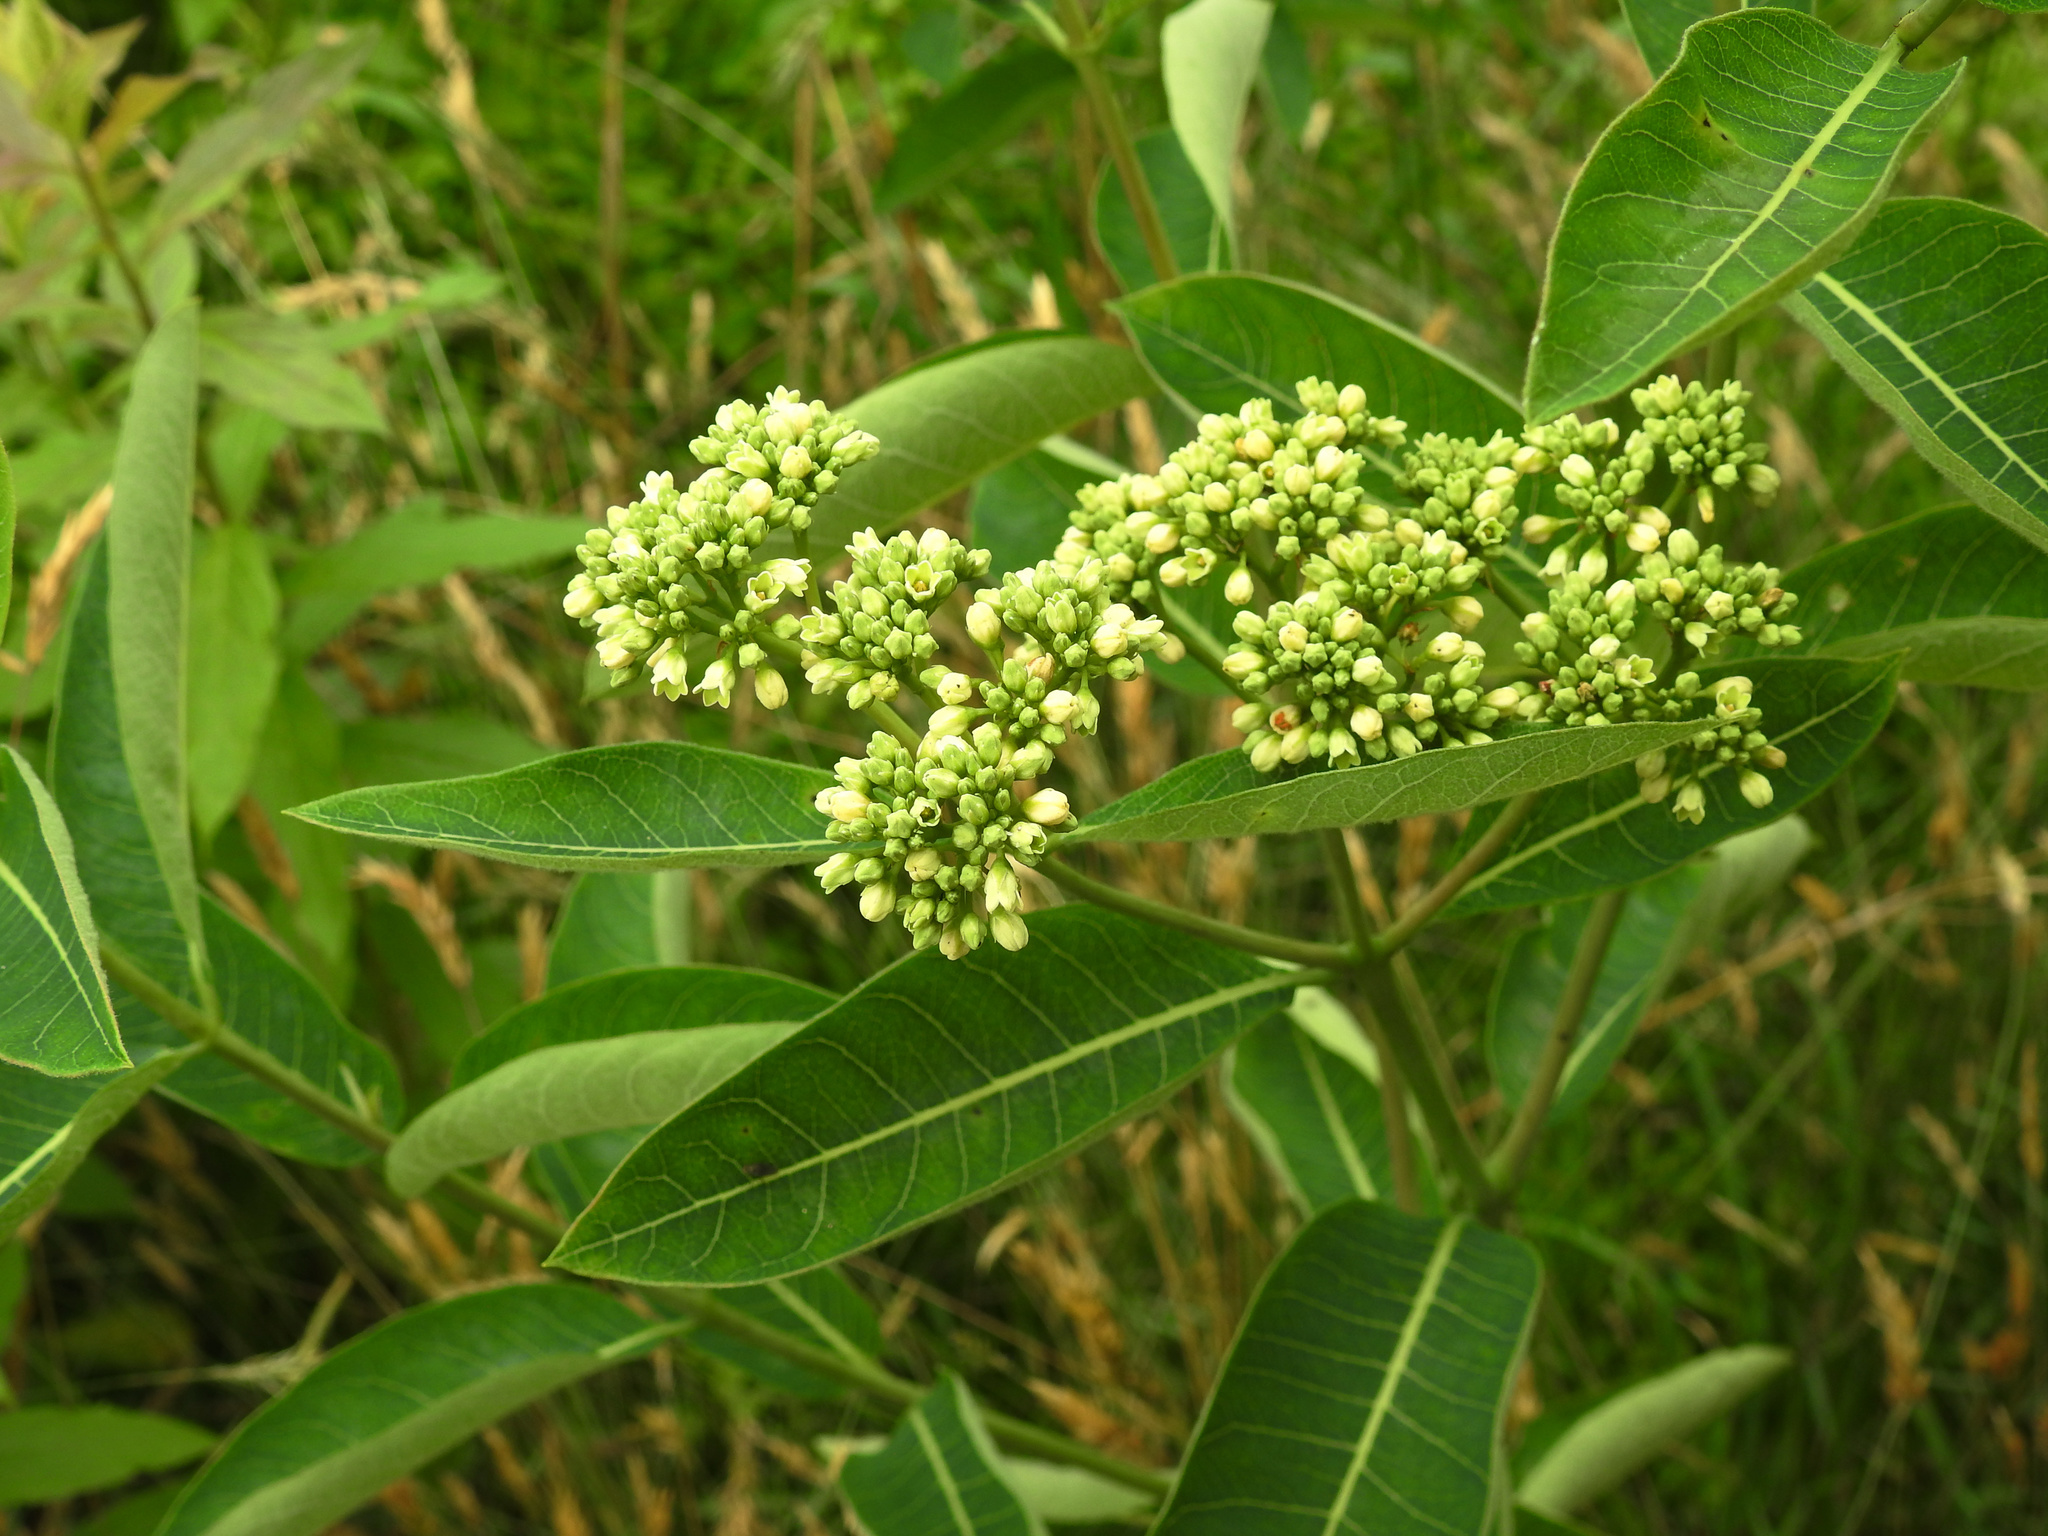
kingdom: Plantae
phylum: Tracheophyta
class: Magnoliopsida
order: Gentianales
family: Apocynaceae
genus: Apocynum
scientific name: Apocynum cannabinum
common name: Hemp dogbane
